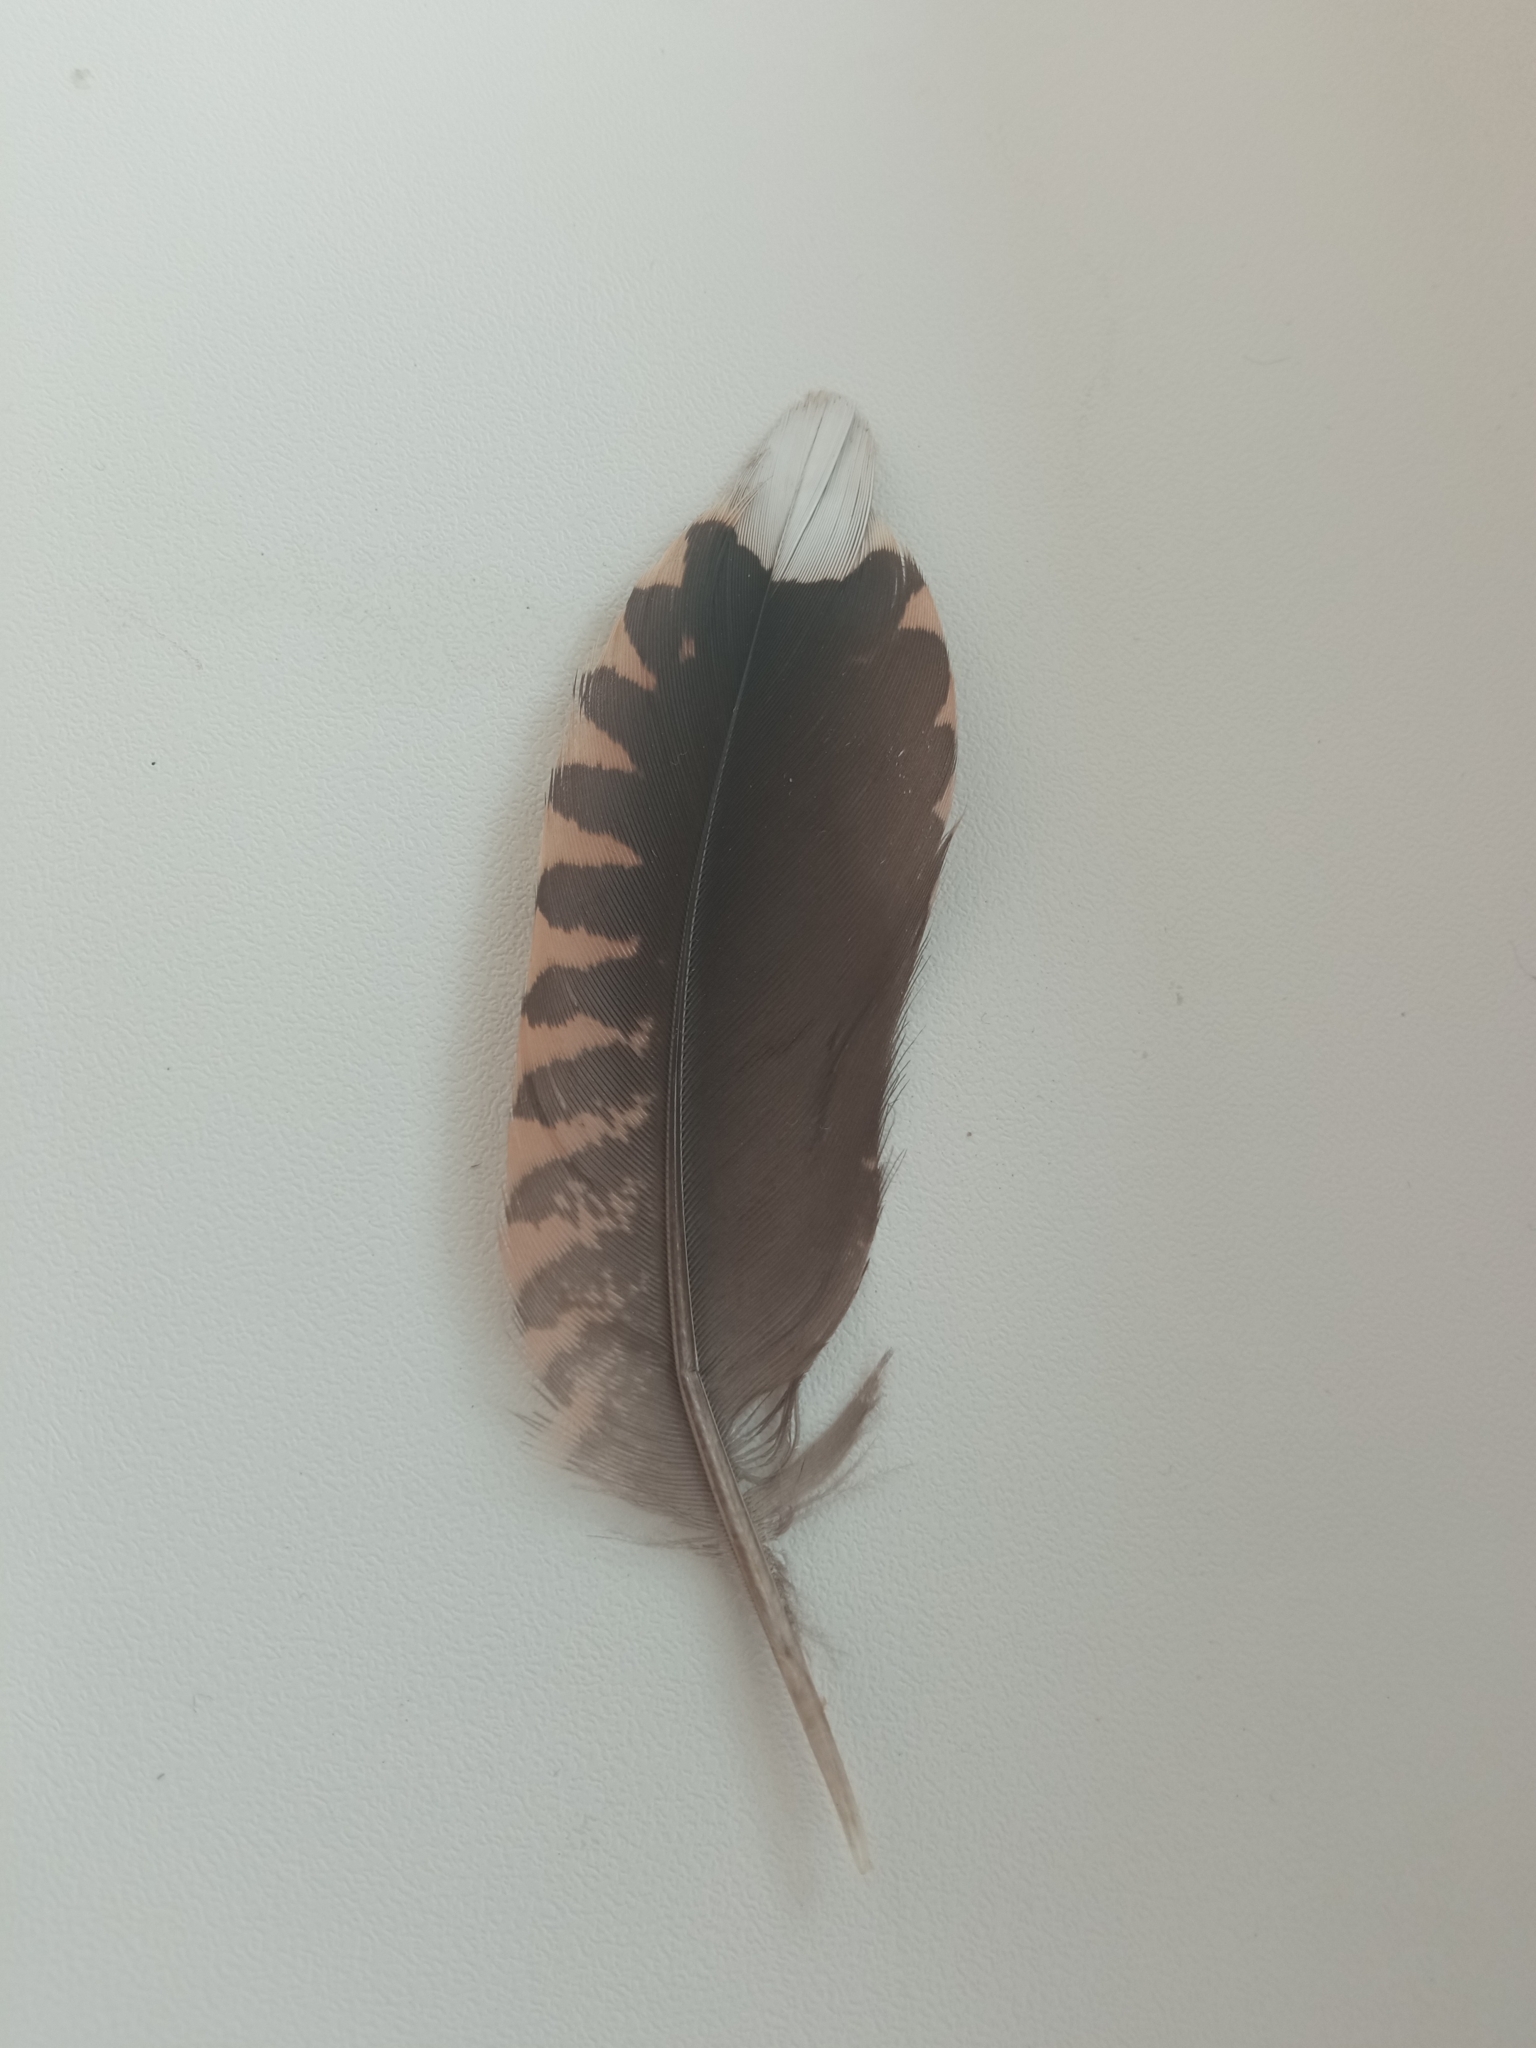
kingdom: Animalia
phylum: Chordata
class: Aves
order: Charadriiformes
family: Scolopacidae
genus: Scolopax
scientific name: Scolopax rusticola
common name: Eurasian woodcock
